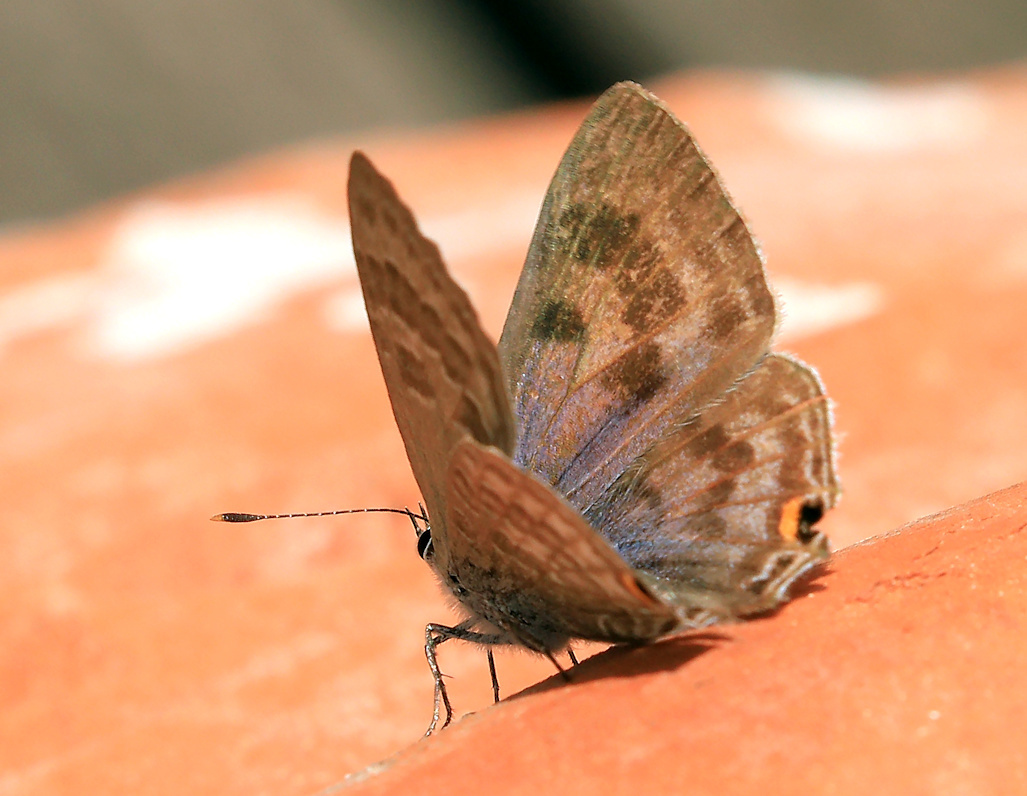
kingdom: Animalia
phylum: Arthropoda
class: Insecta
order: Lepidoptera
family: Lycaenidae
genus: Anthene
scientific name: Anthene definita
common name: Common ciliate blue
